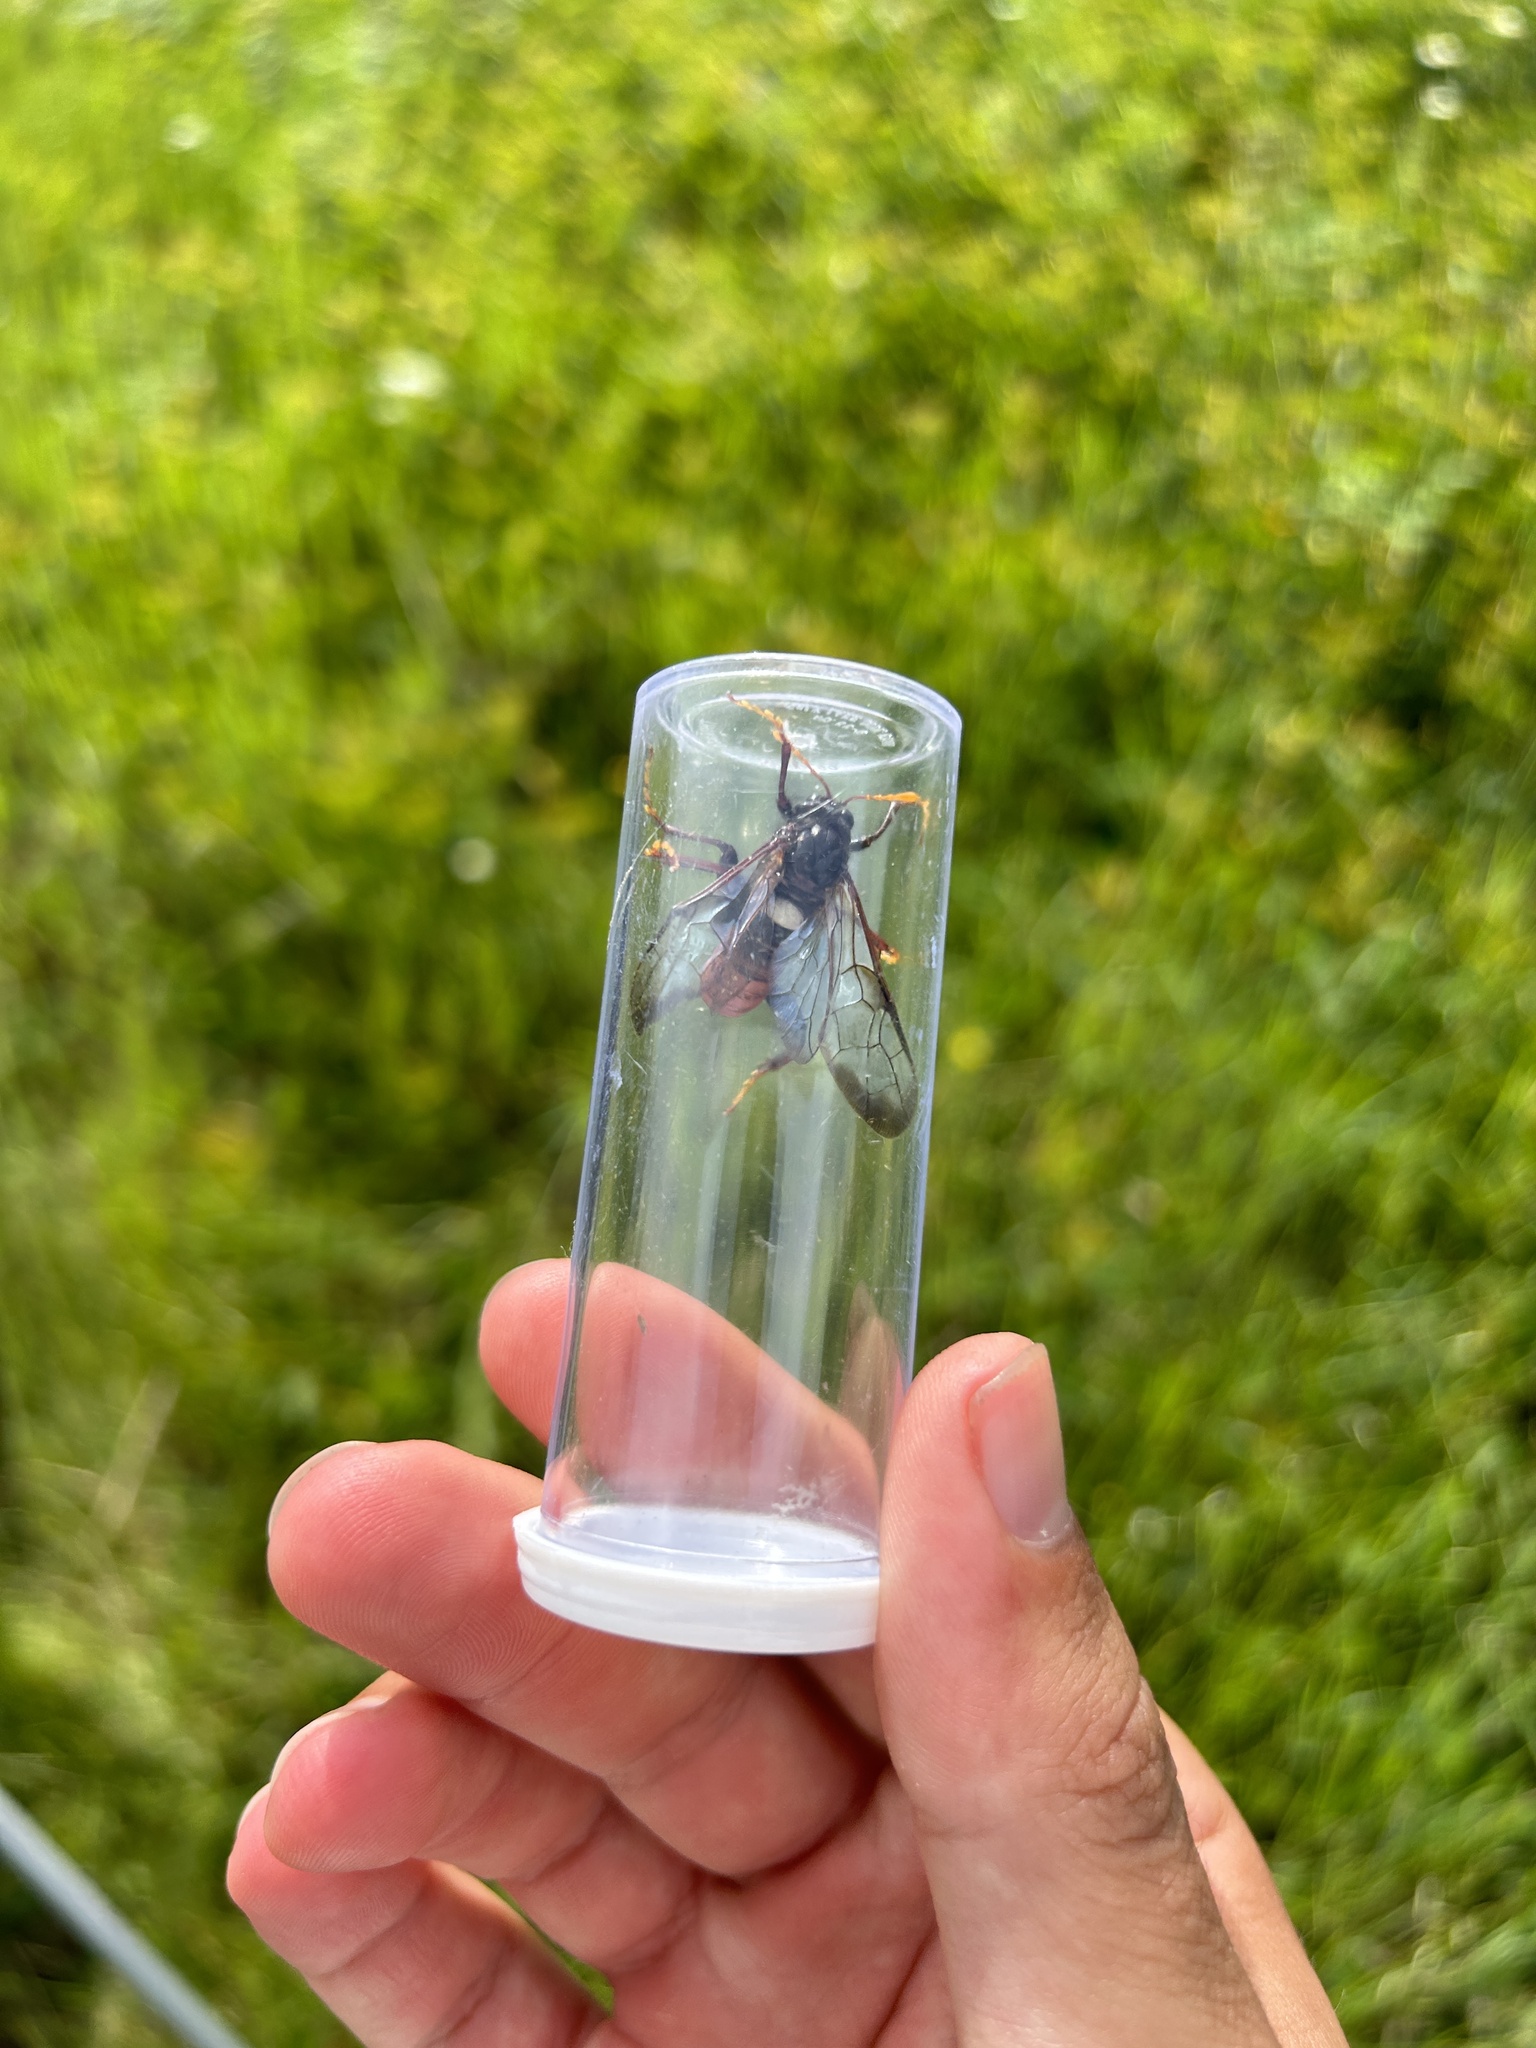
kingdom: Animalia
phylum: Arthropoda
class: Insecta
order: Hymenoptera
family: Cimbicidae
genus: Cimbex
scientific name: Cimbex americana
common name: Elm sawfly
